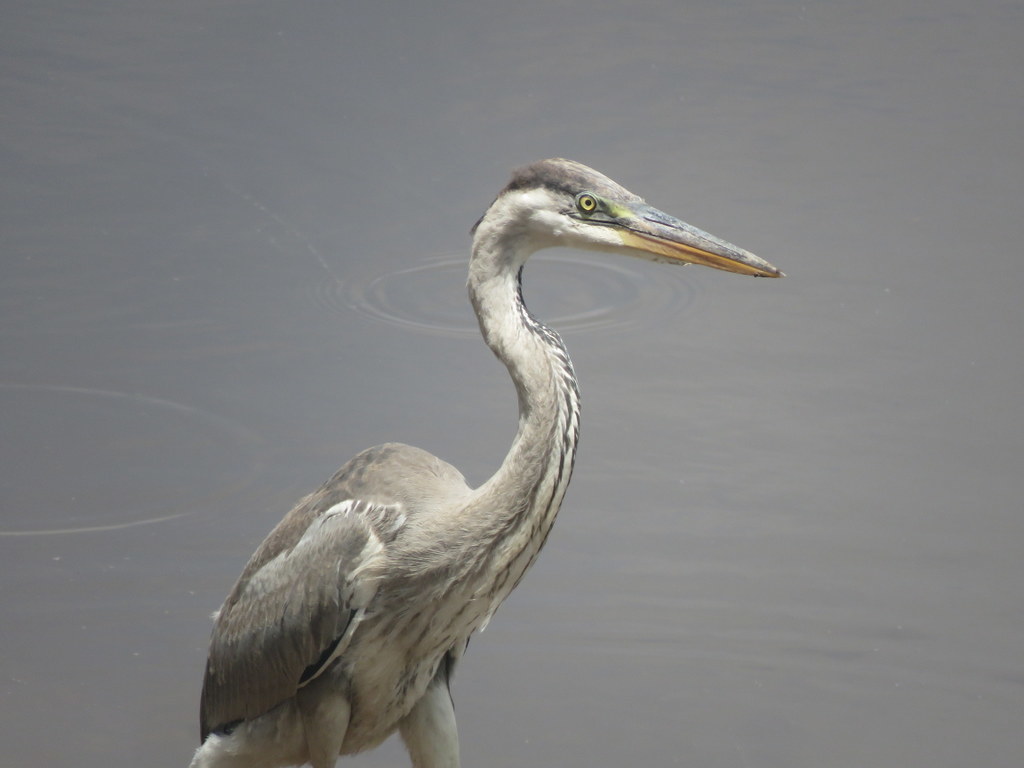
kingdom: Animalia
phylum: Chordata
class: Aves
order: Pelecaniformes
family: Ardeidae
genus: Ardea
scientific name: Ardea cocoi
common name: Cocoi heron
